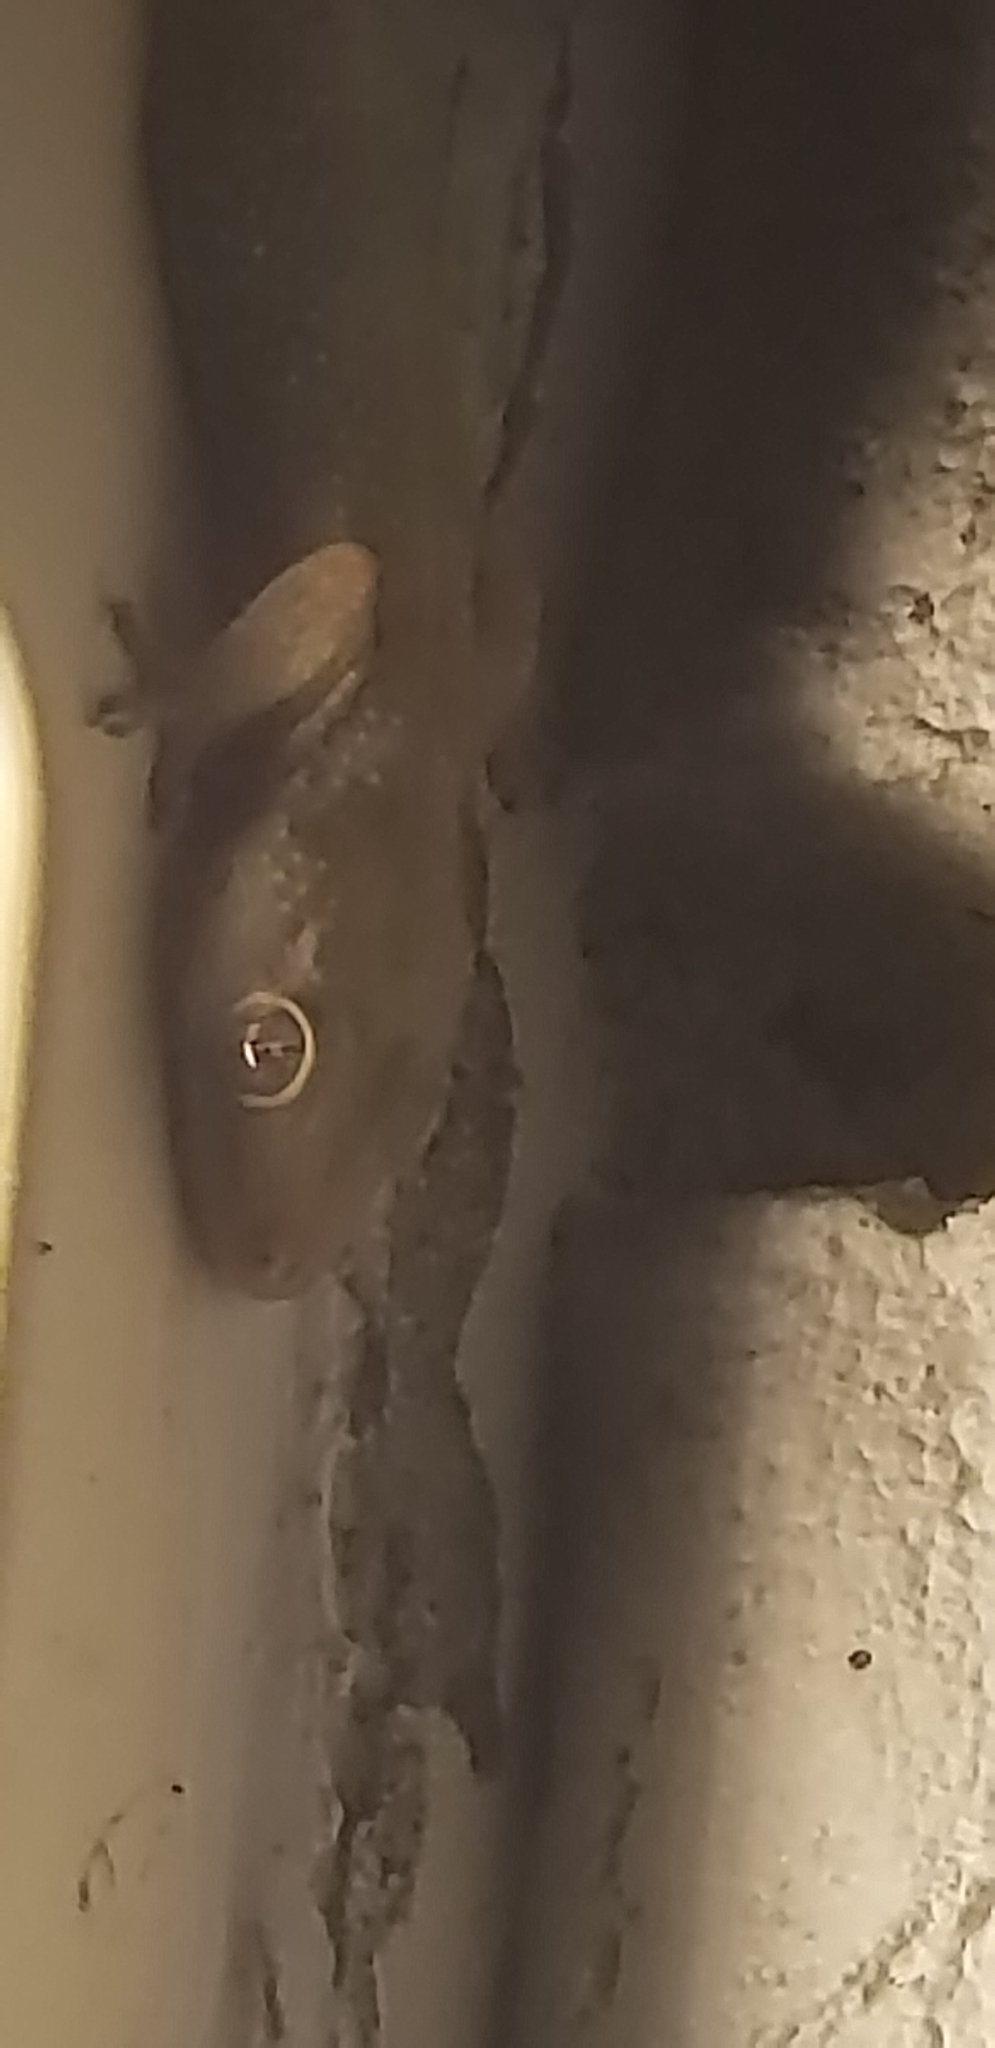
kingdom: Animalia
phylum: Chordata
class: Squamata
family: Gekkonidae
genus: Hemidactylus
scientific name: Hemidactylus mabouia
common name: House gecko
